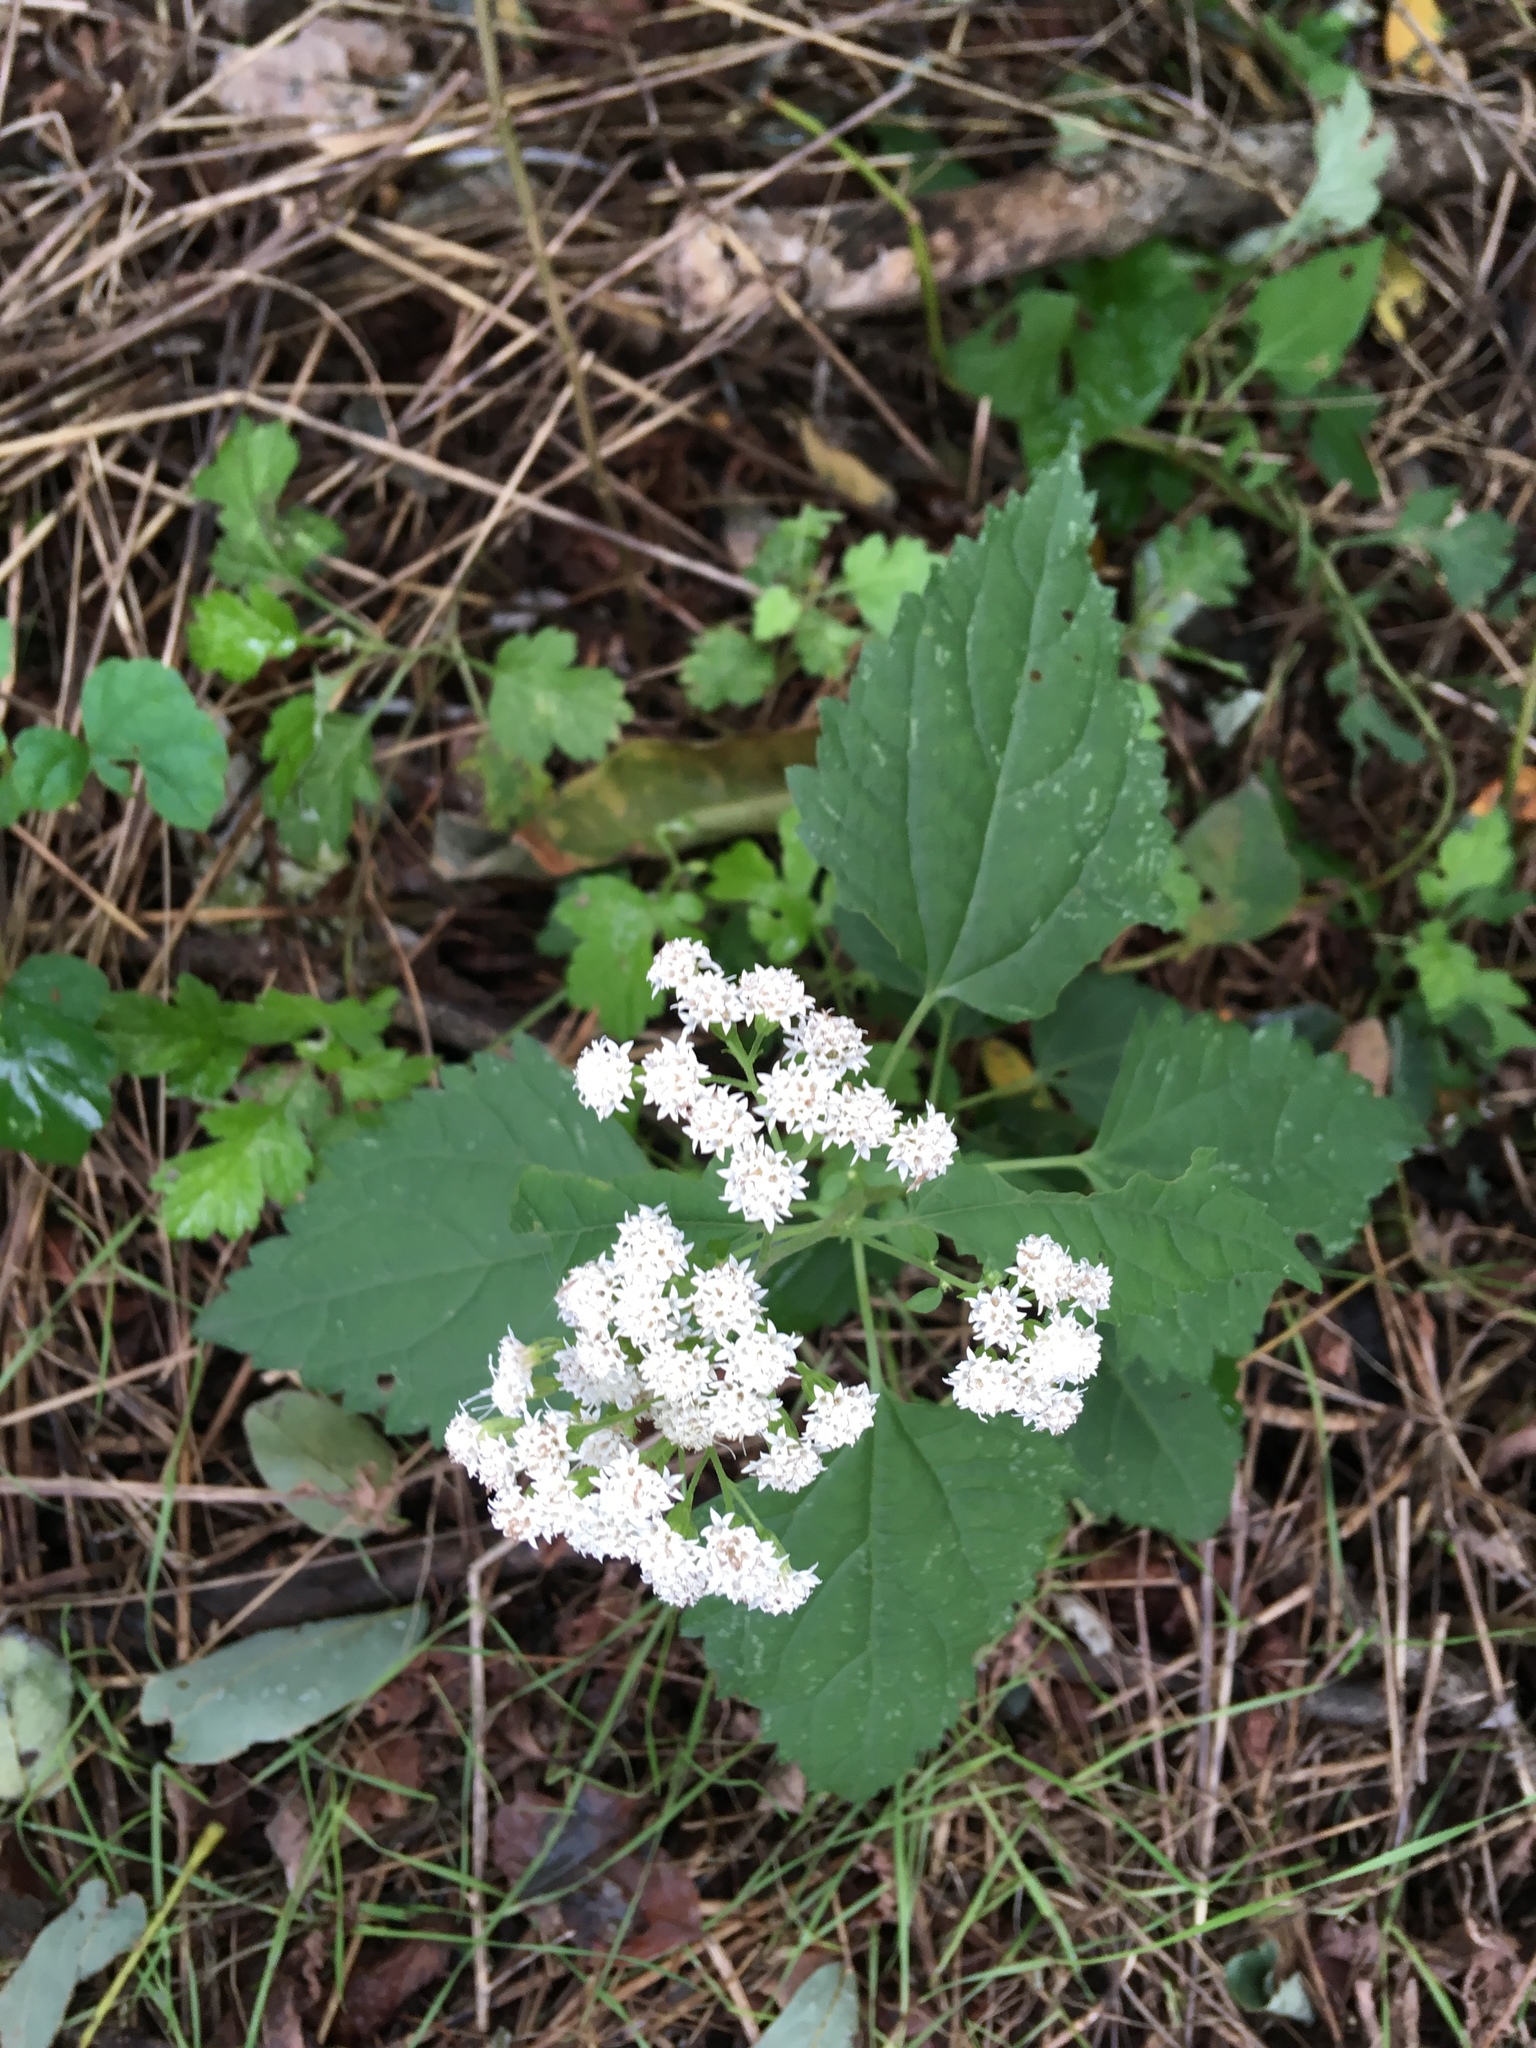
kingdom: Plantae
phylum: Tracheophyta
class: Magnoliopsida
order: Asterales
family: Asteraceae
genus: Ageratina
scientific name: Ageratina altissima
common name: White snakeroot
